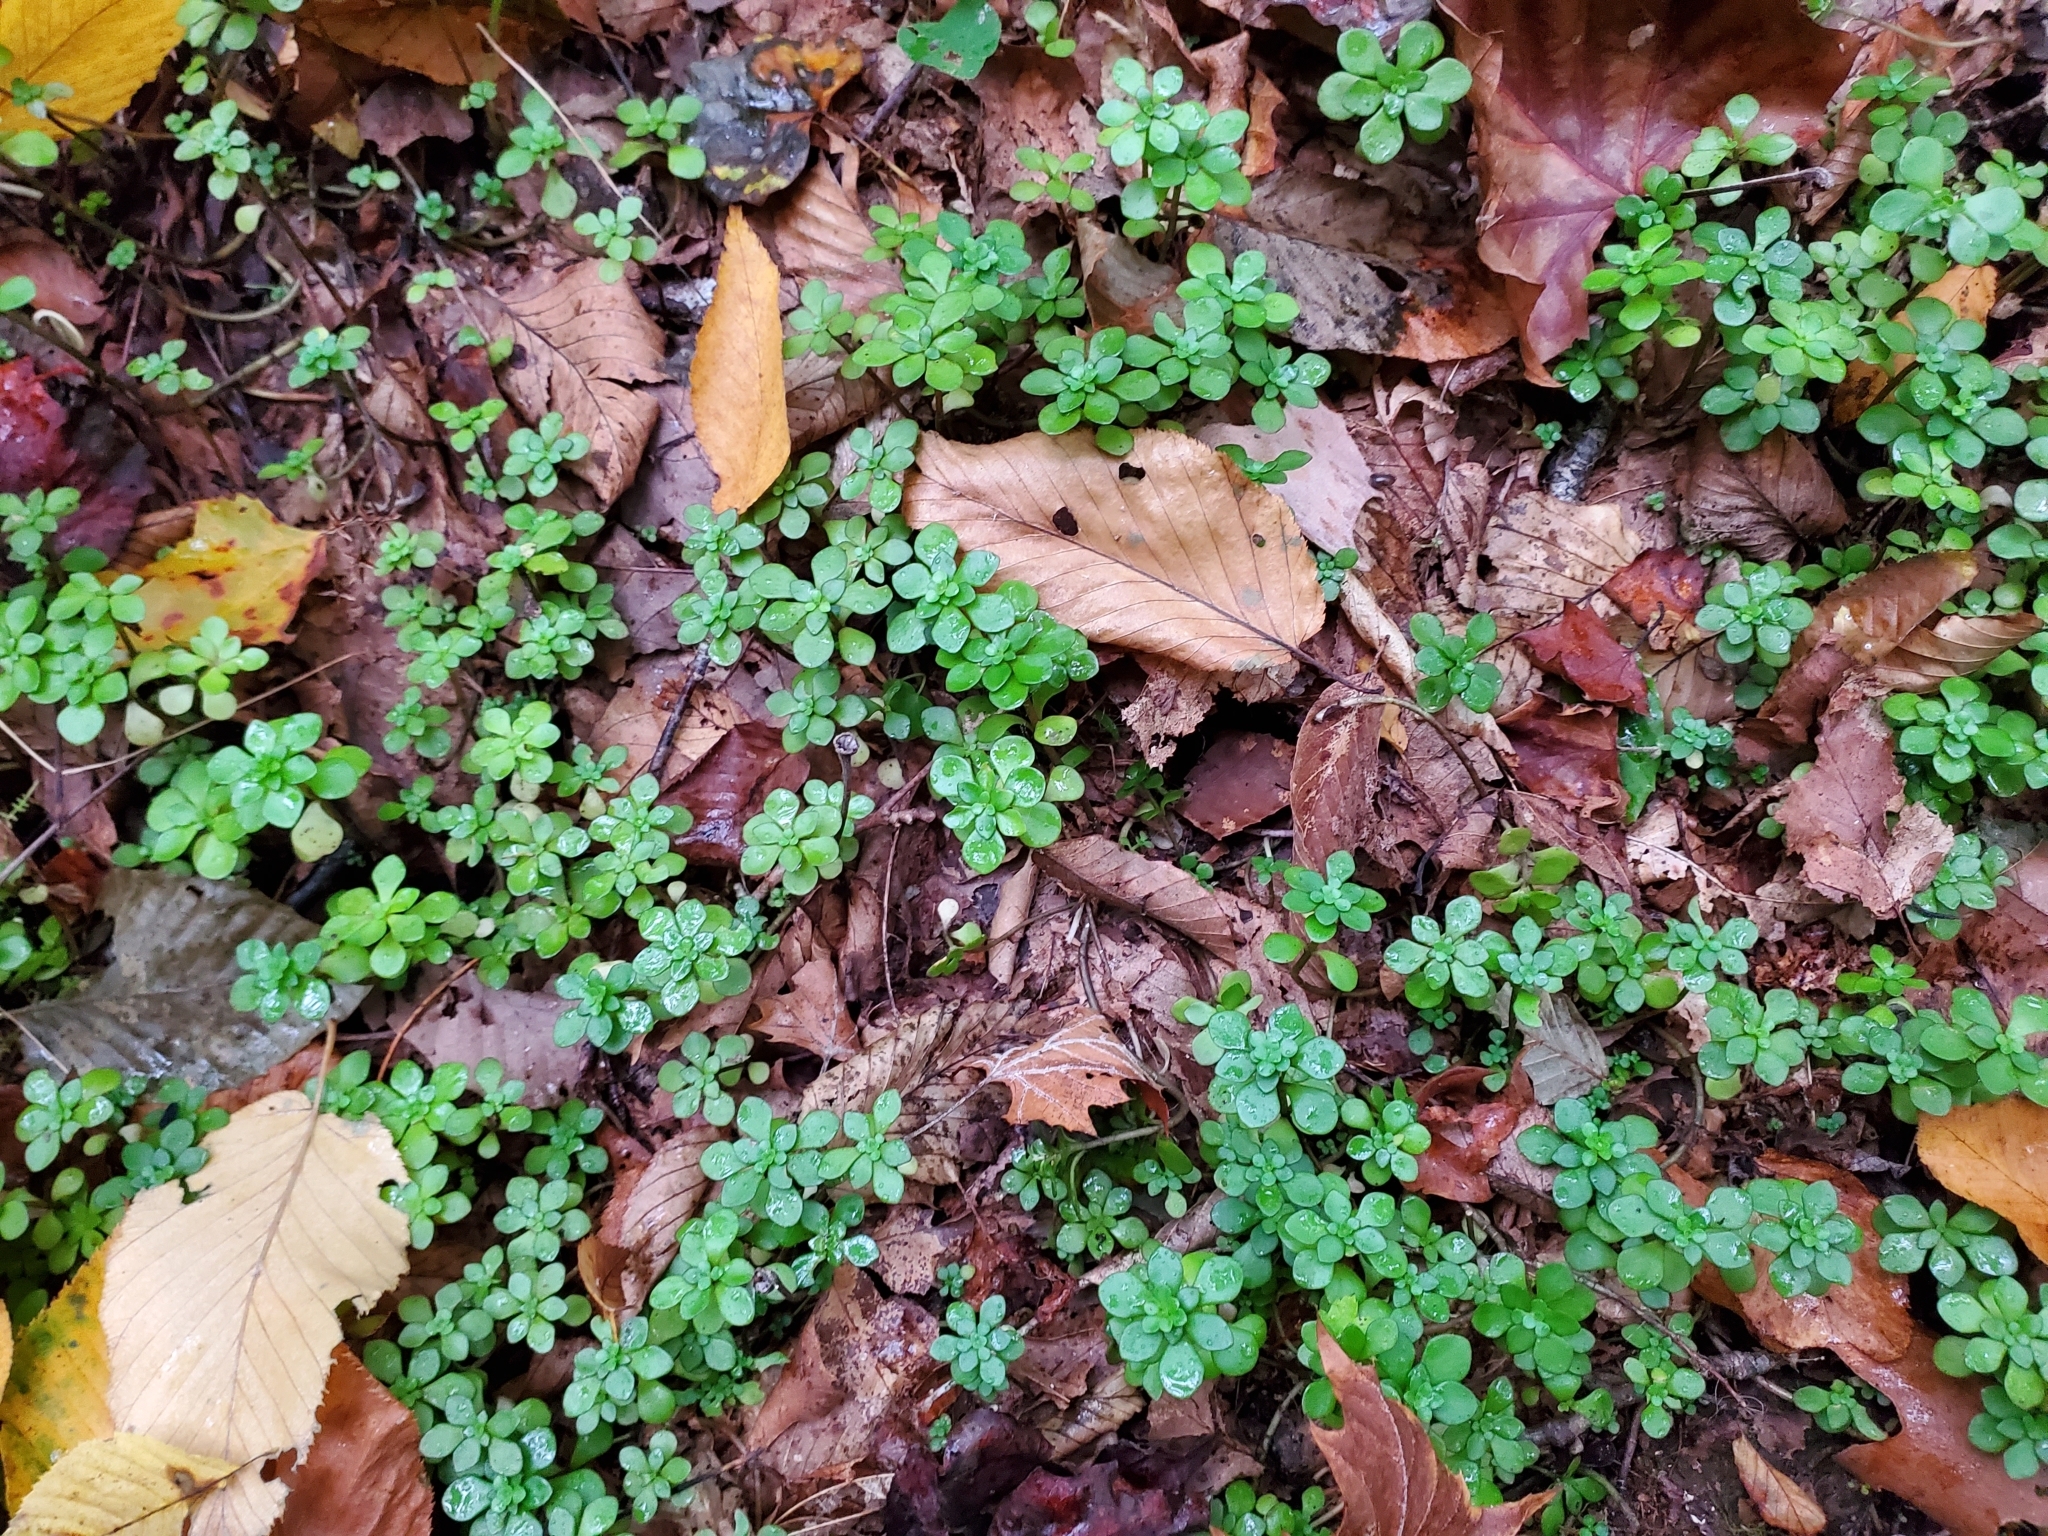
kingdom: Plantae
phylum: Tracheophyta
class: Magnoliopsida
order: Saxifragales
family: Crassulaceae
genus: Sedum
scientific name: Sedum ternatum
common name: Wild stonecrop
